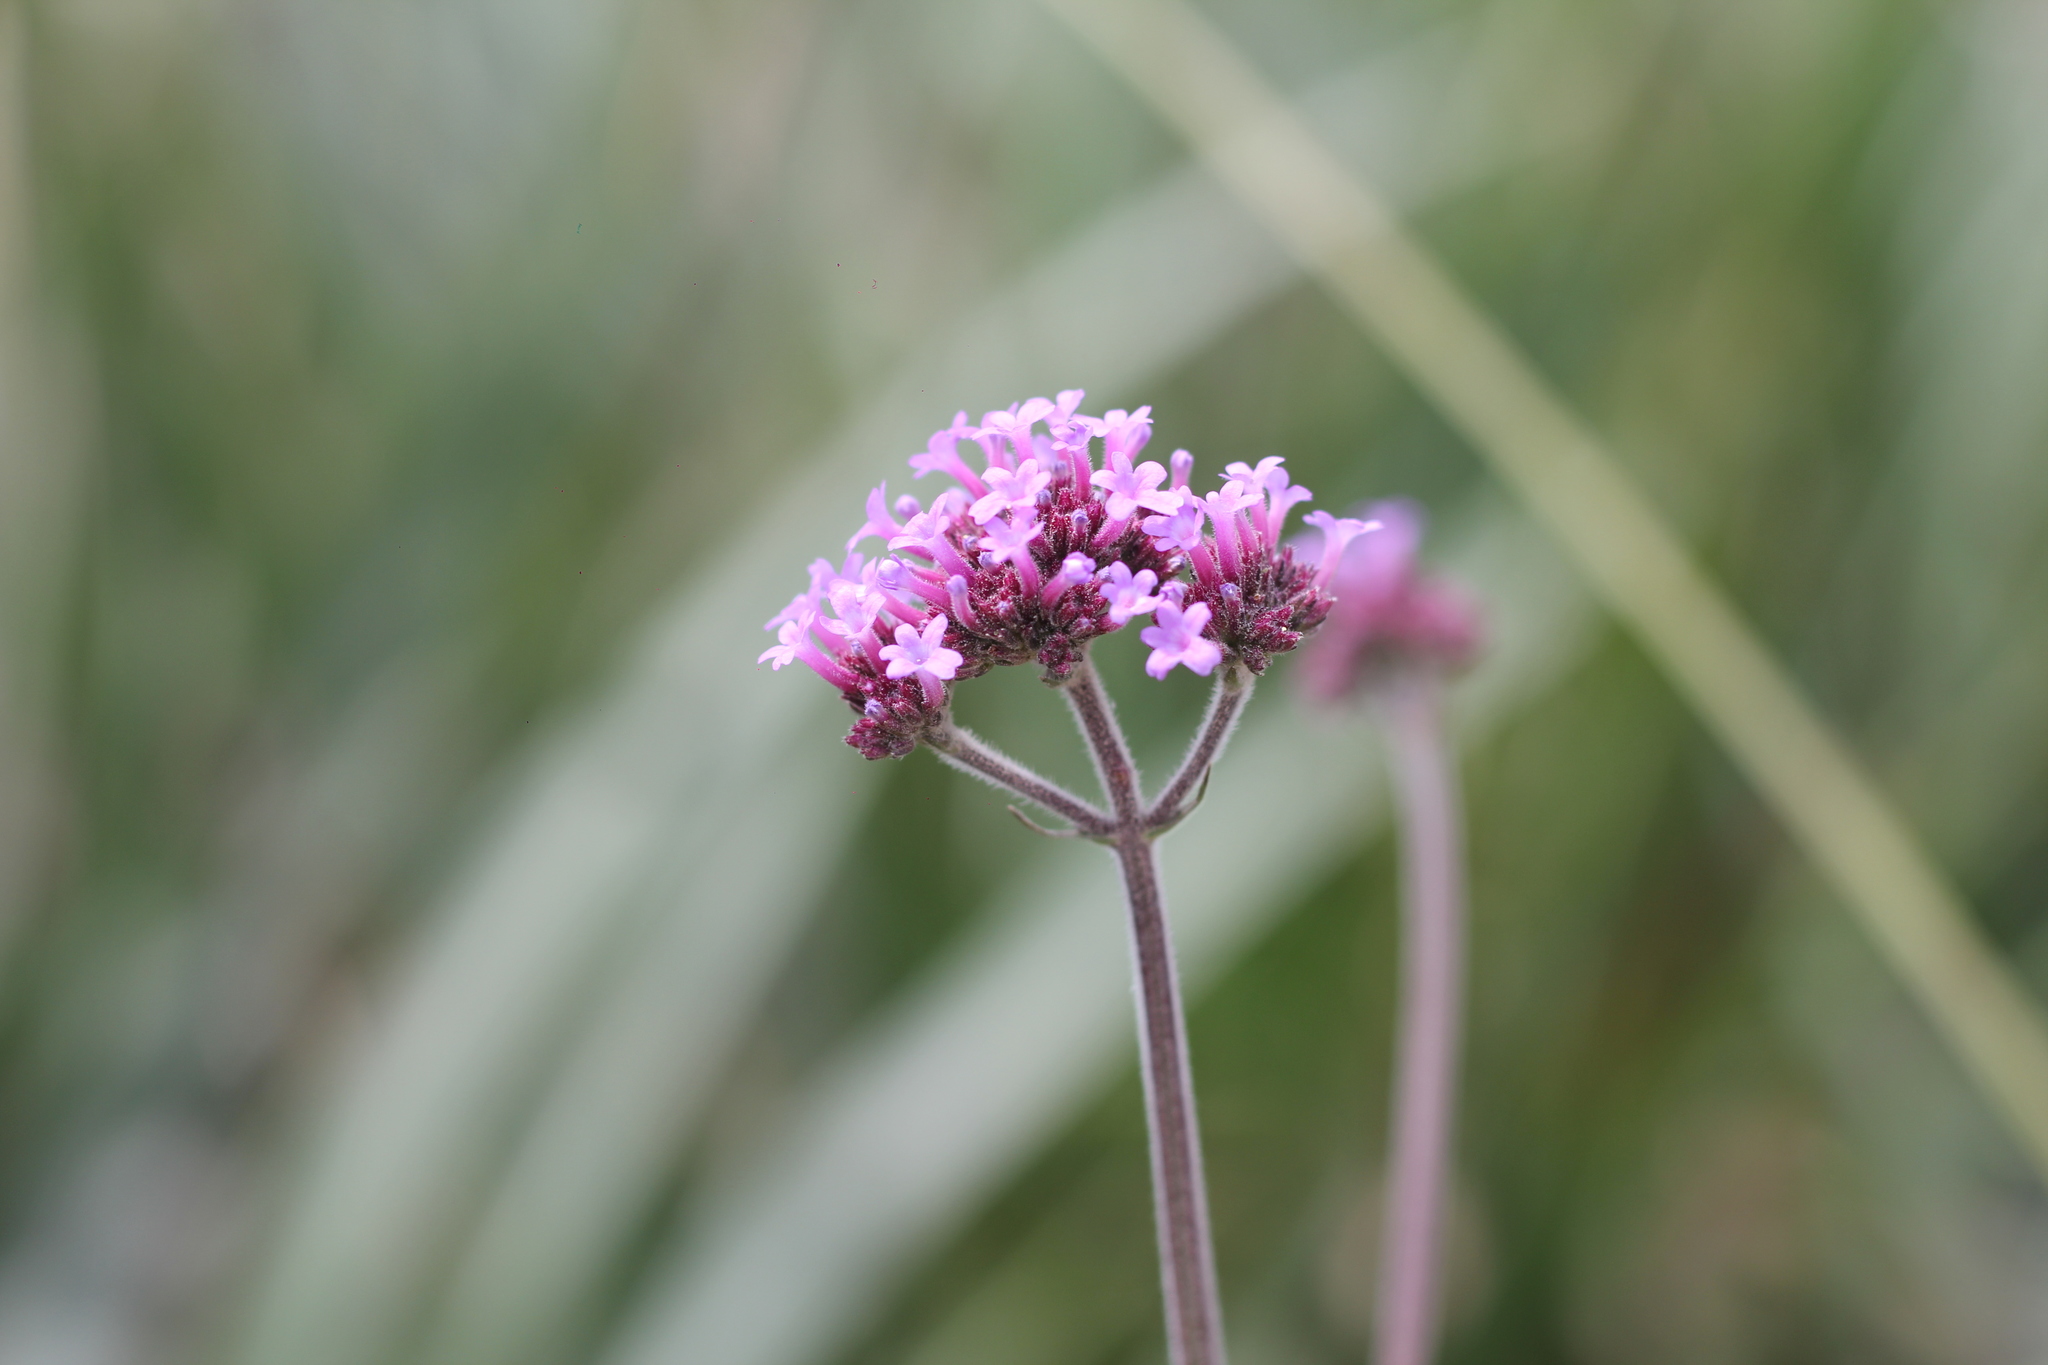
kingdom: Plantae
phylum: Tracheophyta
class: Magnoliopsida
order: Lamiales
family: Verbenaceae
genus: Verbena
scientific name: Verbena bonariensis
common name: Purpletop vervain
